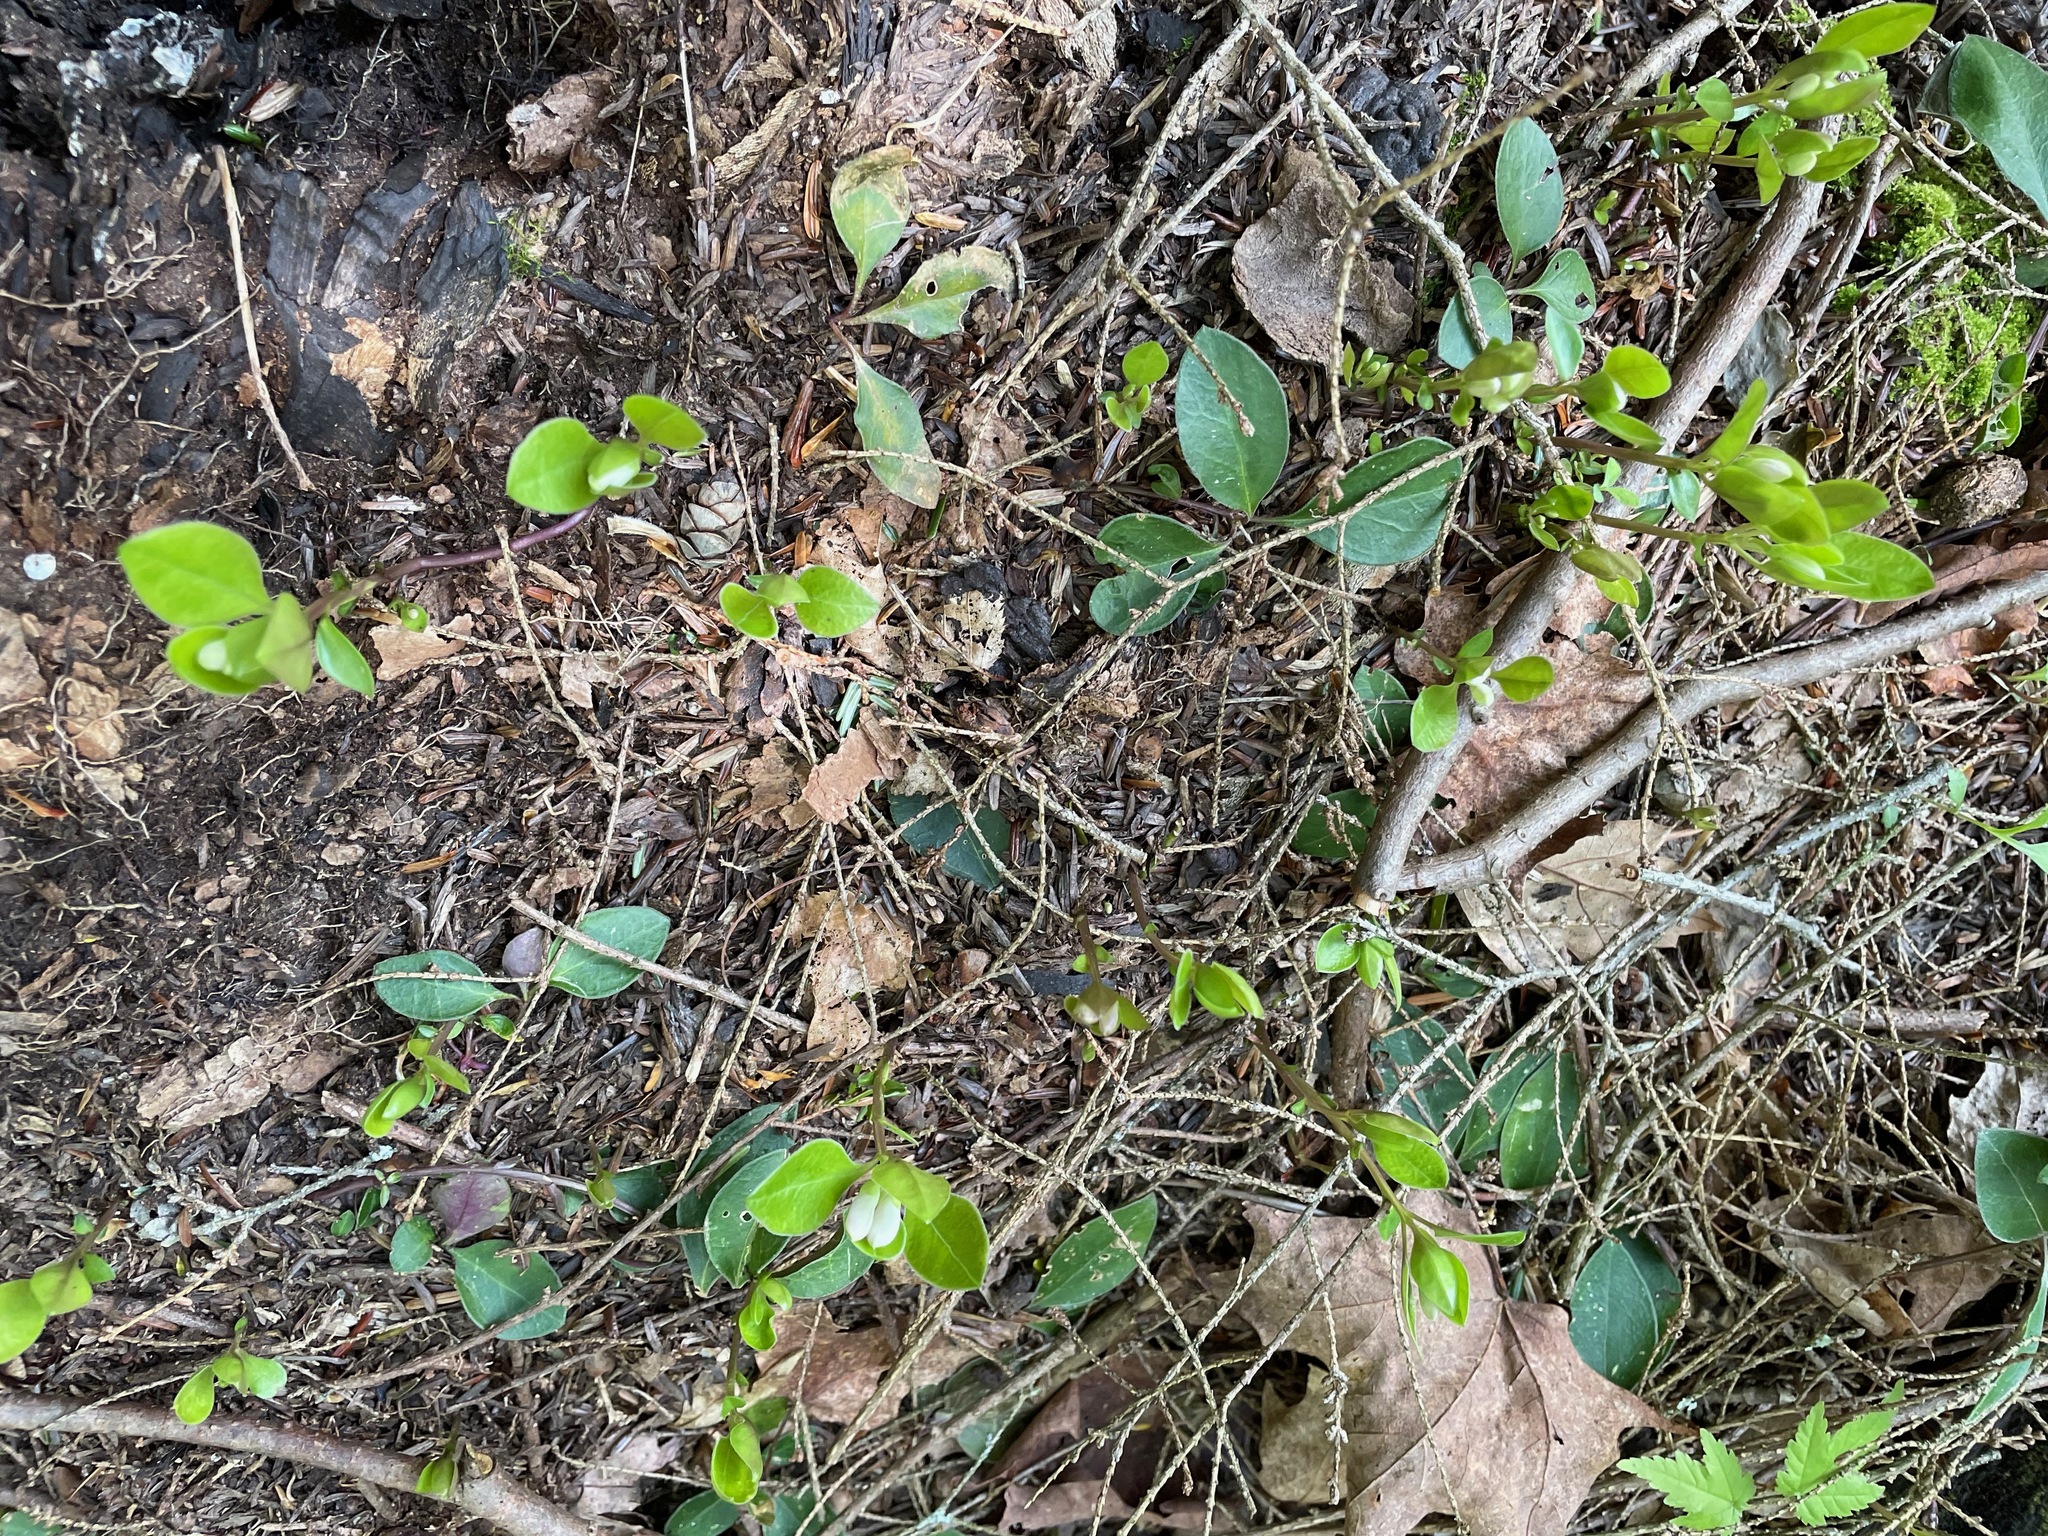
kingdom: Plantae
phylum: Tracheophyta
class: Magnoliopsida
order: Fabales
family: Polygalaceae
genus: Polygaloides
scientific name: Polygaloides paucifolia
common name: Bird-on-the-wing
